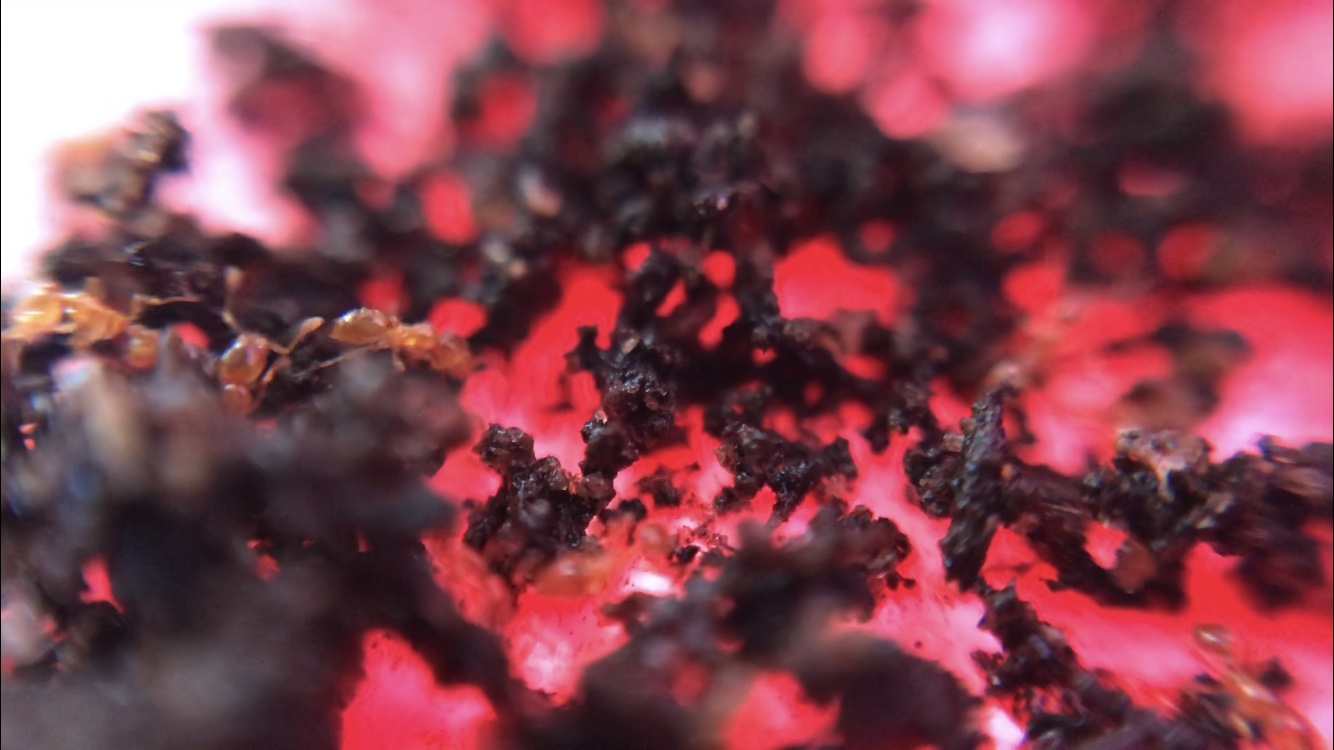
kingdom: Animalia
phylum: Arthropoda
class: Insecta
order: Hymenoptera
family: Formicidae
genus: Solenopsis
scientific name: Solenopsis molesta
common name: Thief ant
